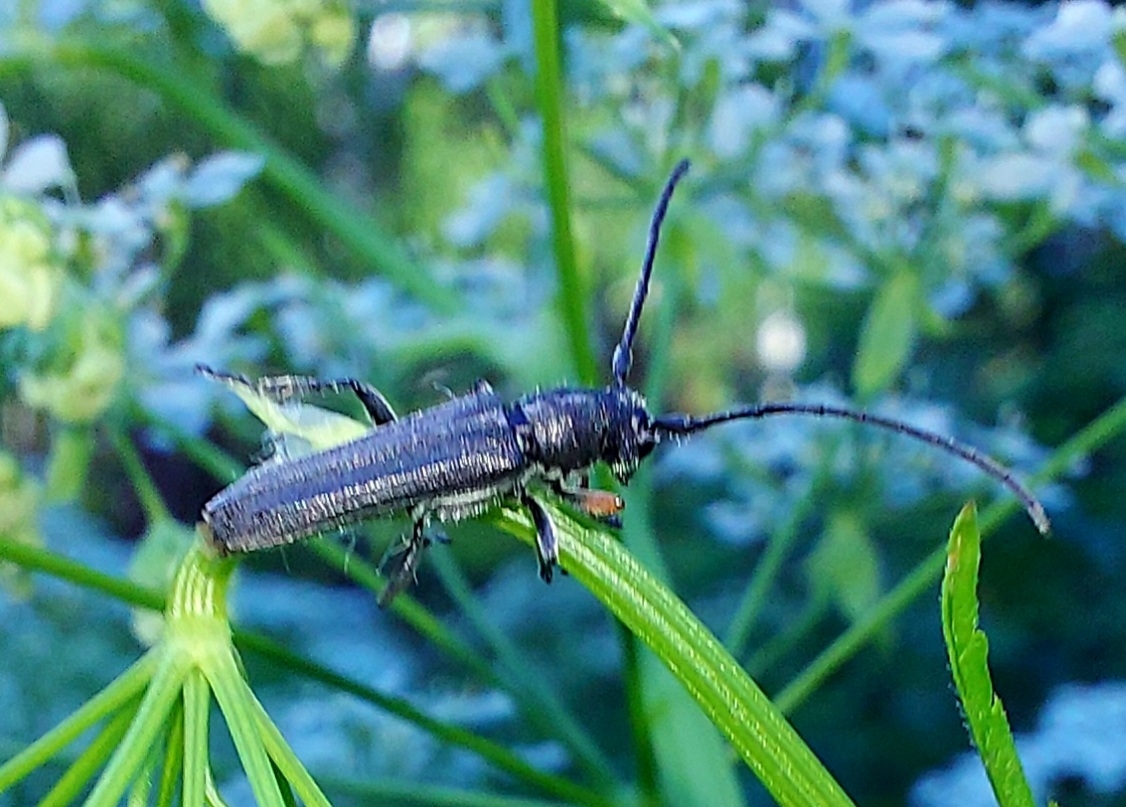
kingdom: Animalia
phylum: Arthropoda
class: Insecta
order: Coleoptera
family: Cerambycidae
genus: Phytoecia
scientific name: Phytoecia cylindrica
